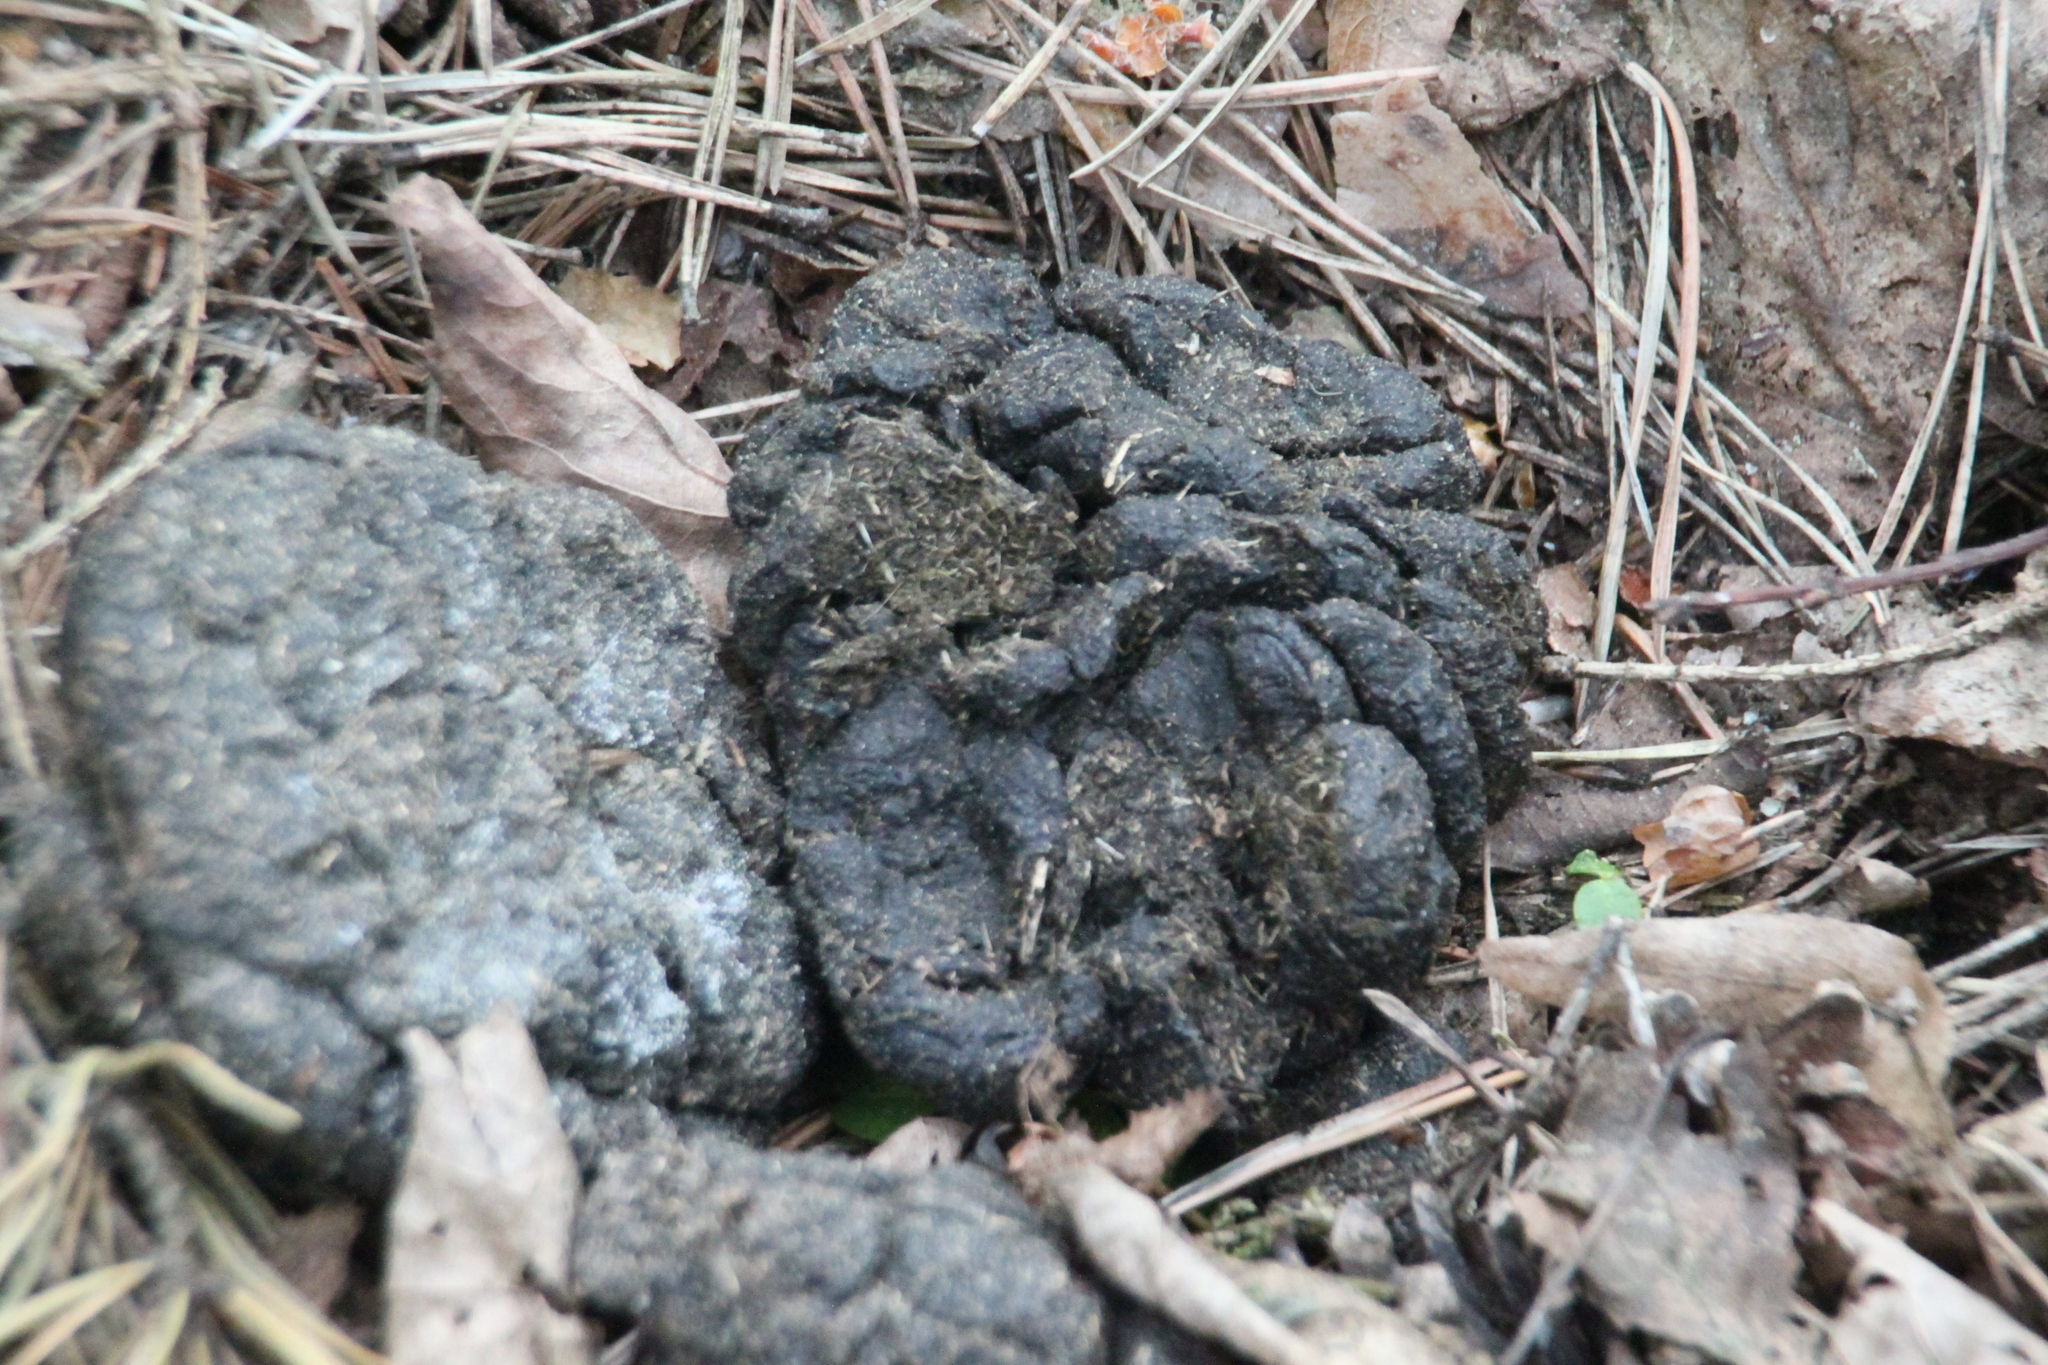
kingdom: Animalia
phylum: Chordata
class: Mammalia
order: Artiodactyla
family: Suidae
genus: Sus
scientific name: Sus scrofa
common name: Wild boar
